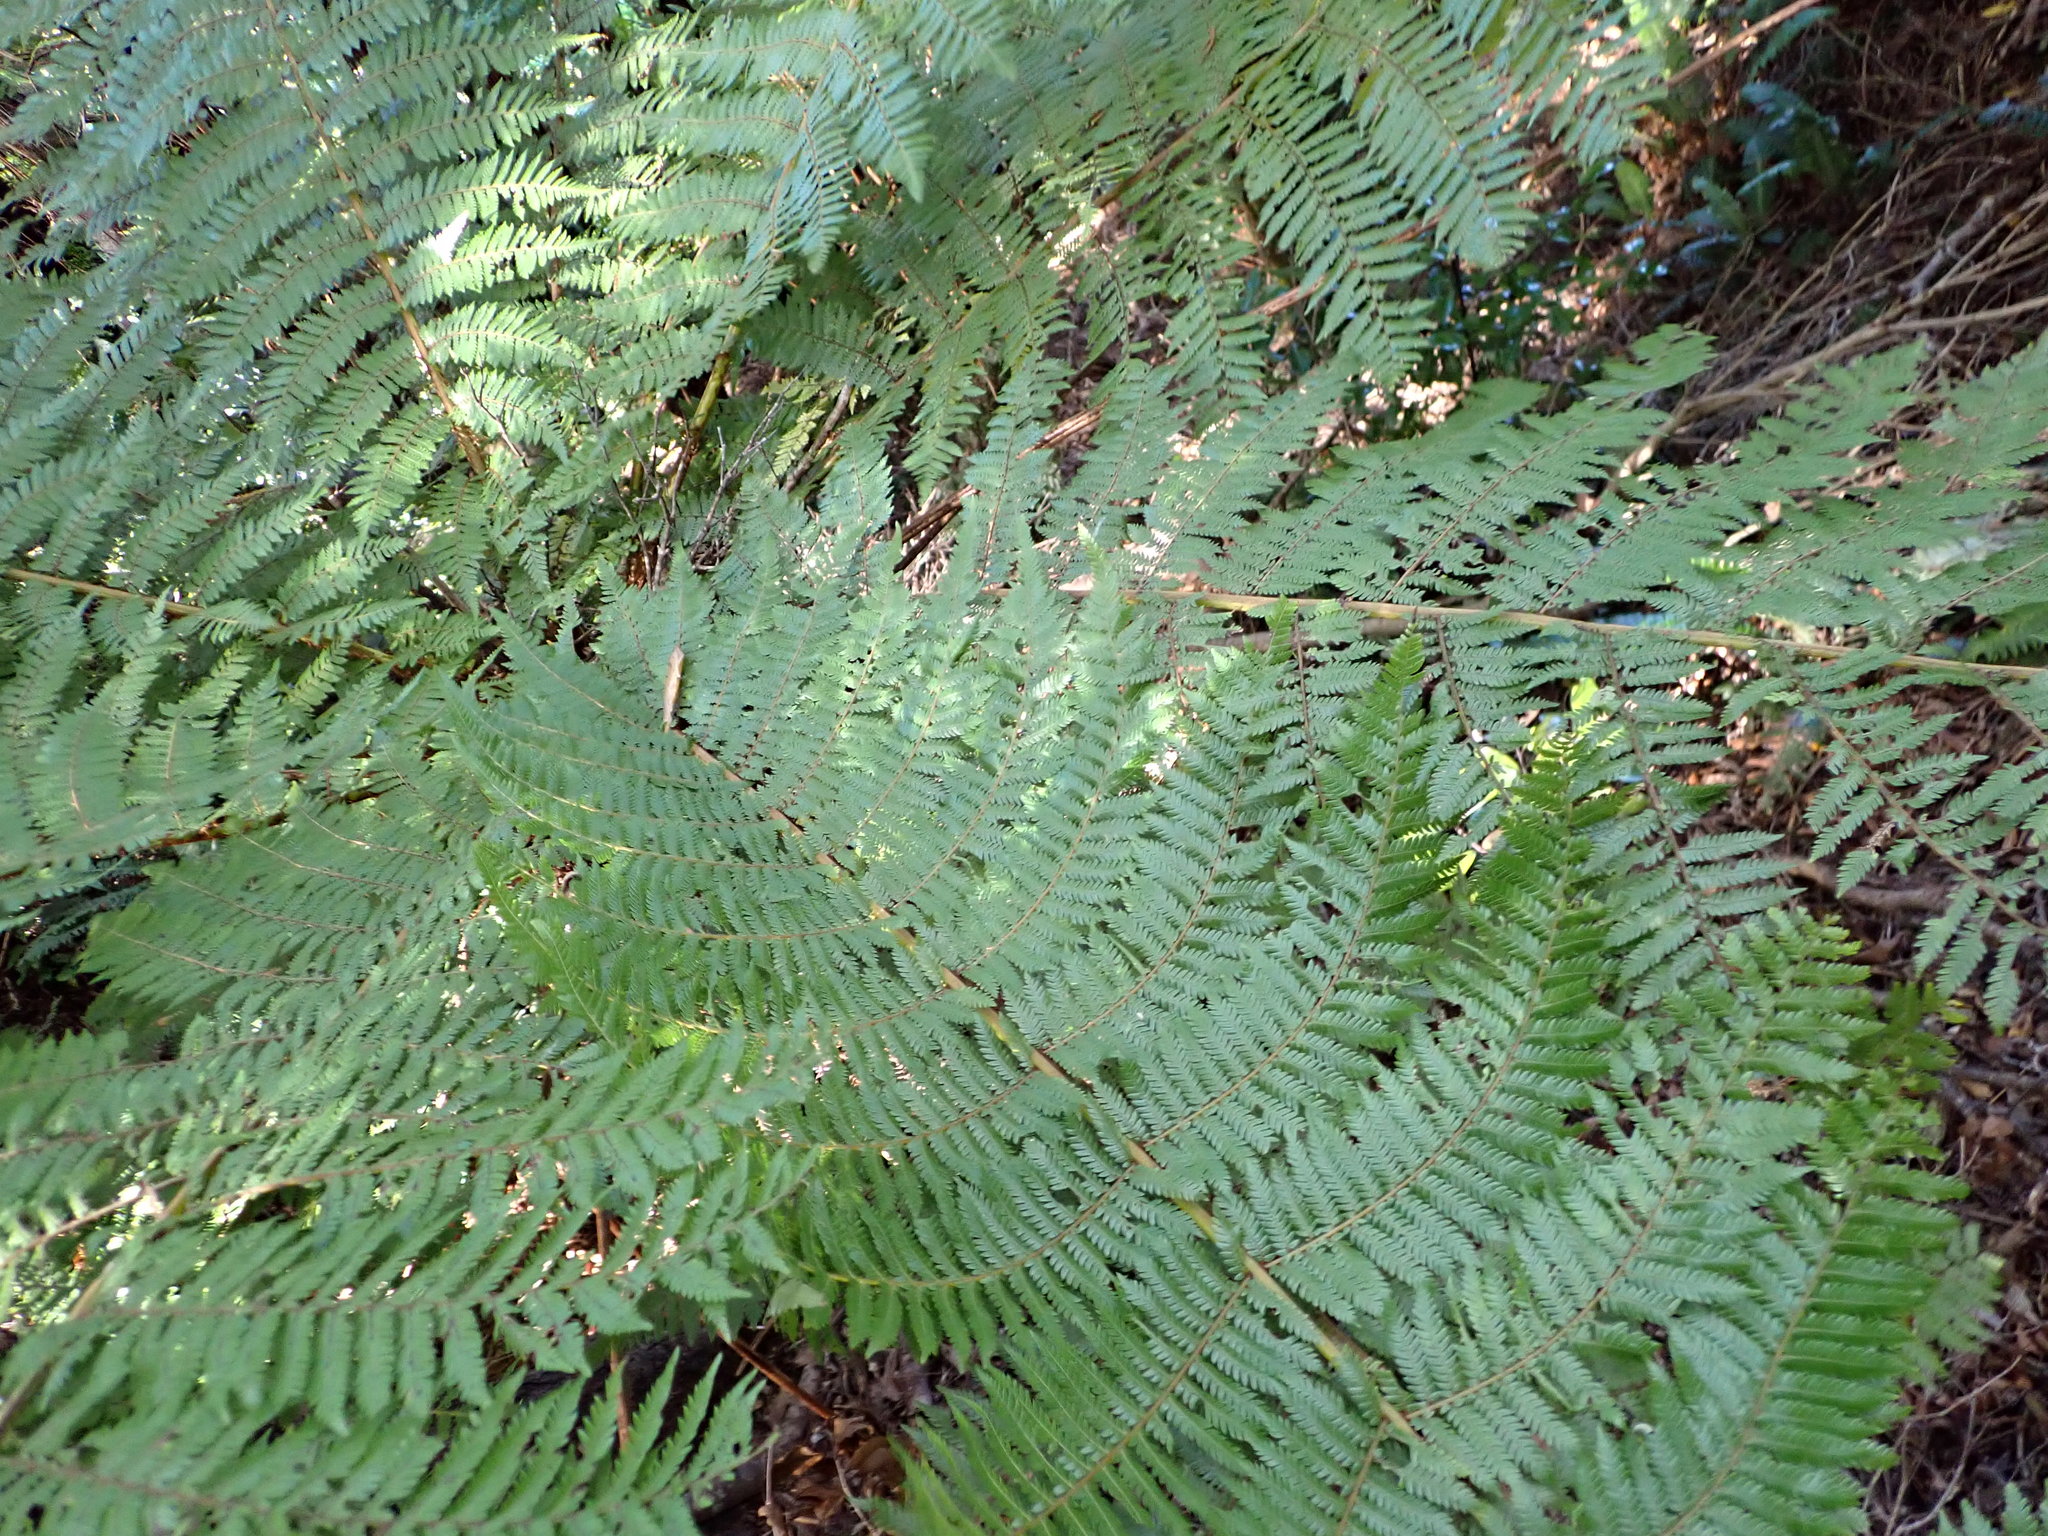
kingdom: Plantae
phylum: Tracheophyta
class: Polypodiopsida
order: Cyatheales
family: Cyatheaceae
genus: Alsophila
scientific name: Alsophila smithii
